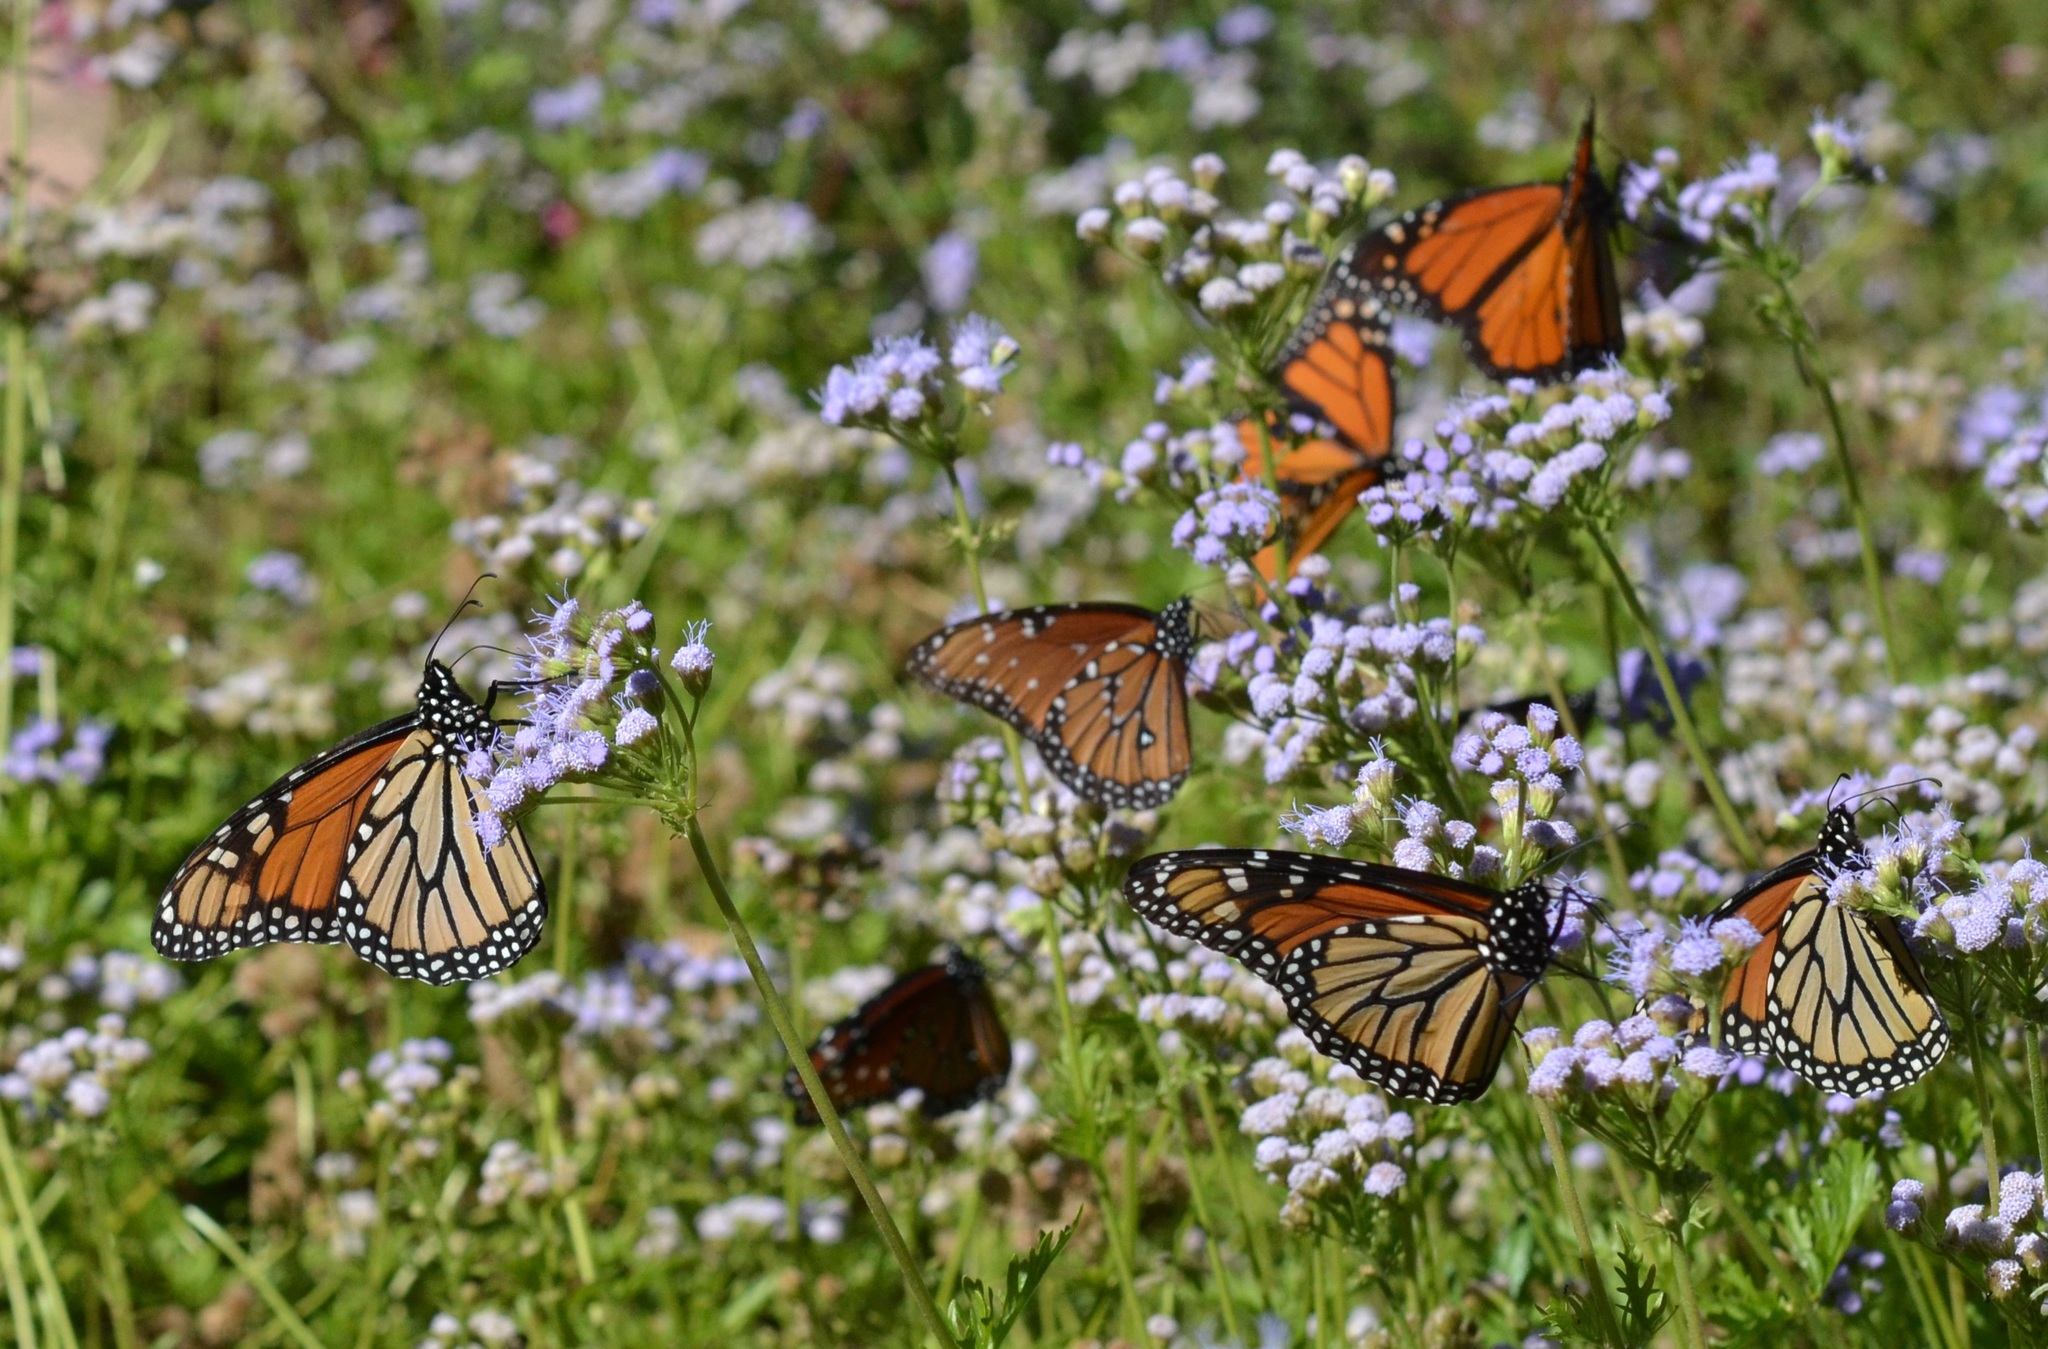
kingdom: Animalia
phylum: Arthropoda
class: Insecta
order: Lepidoptera
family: Nymphalidae
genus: Danaus
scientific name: Danaus plexippus
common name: Monarch
